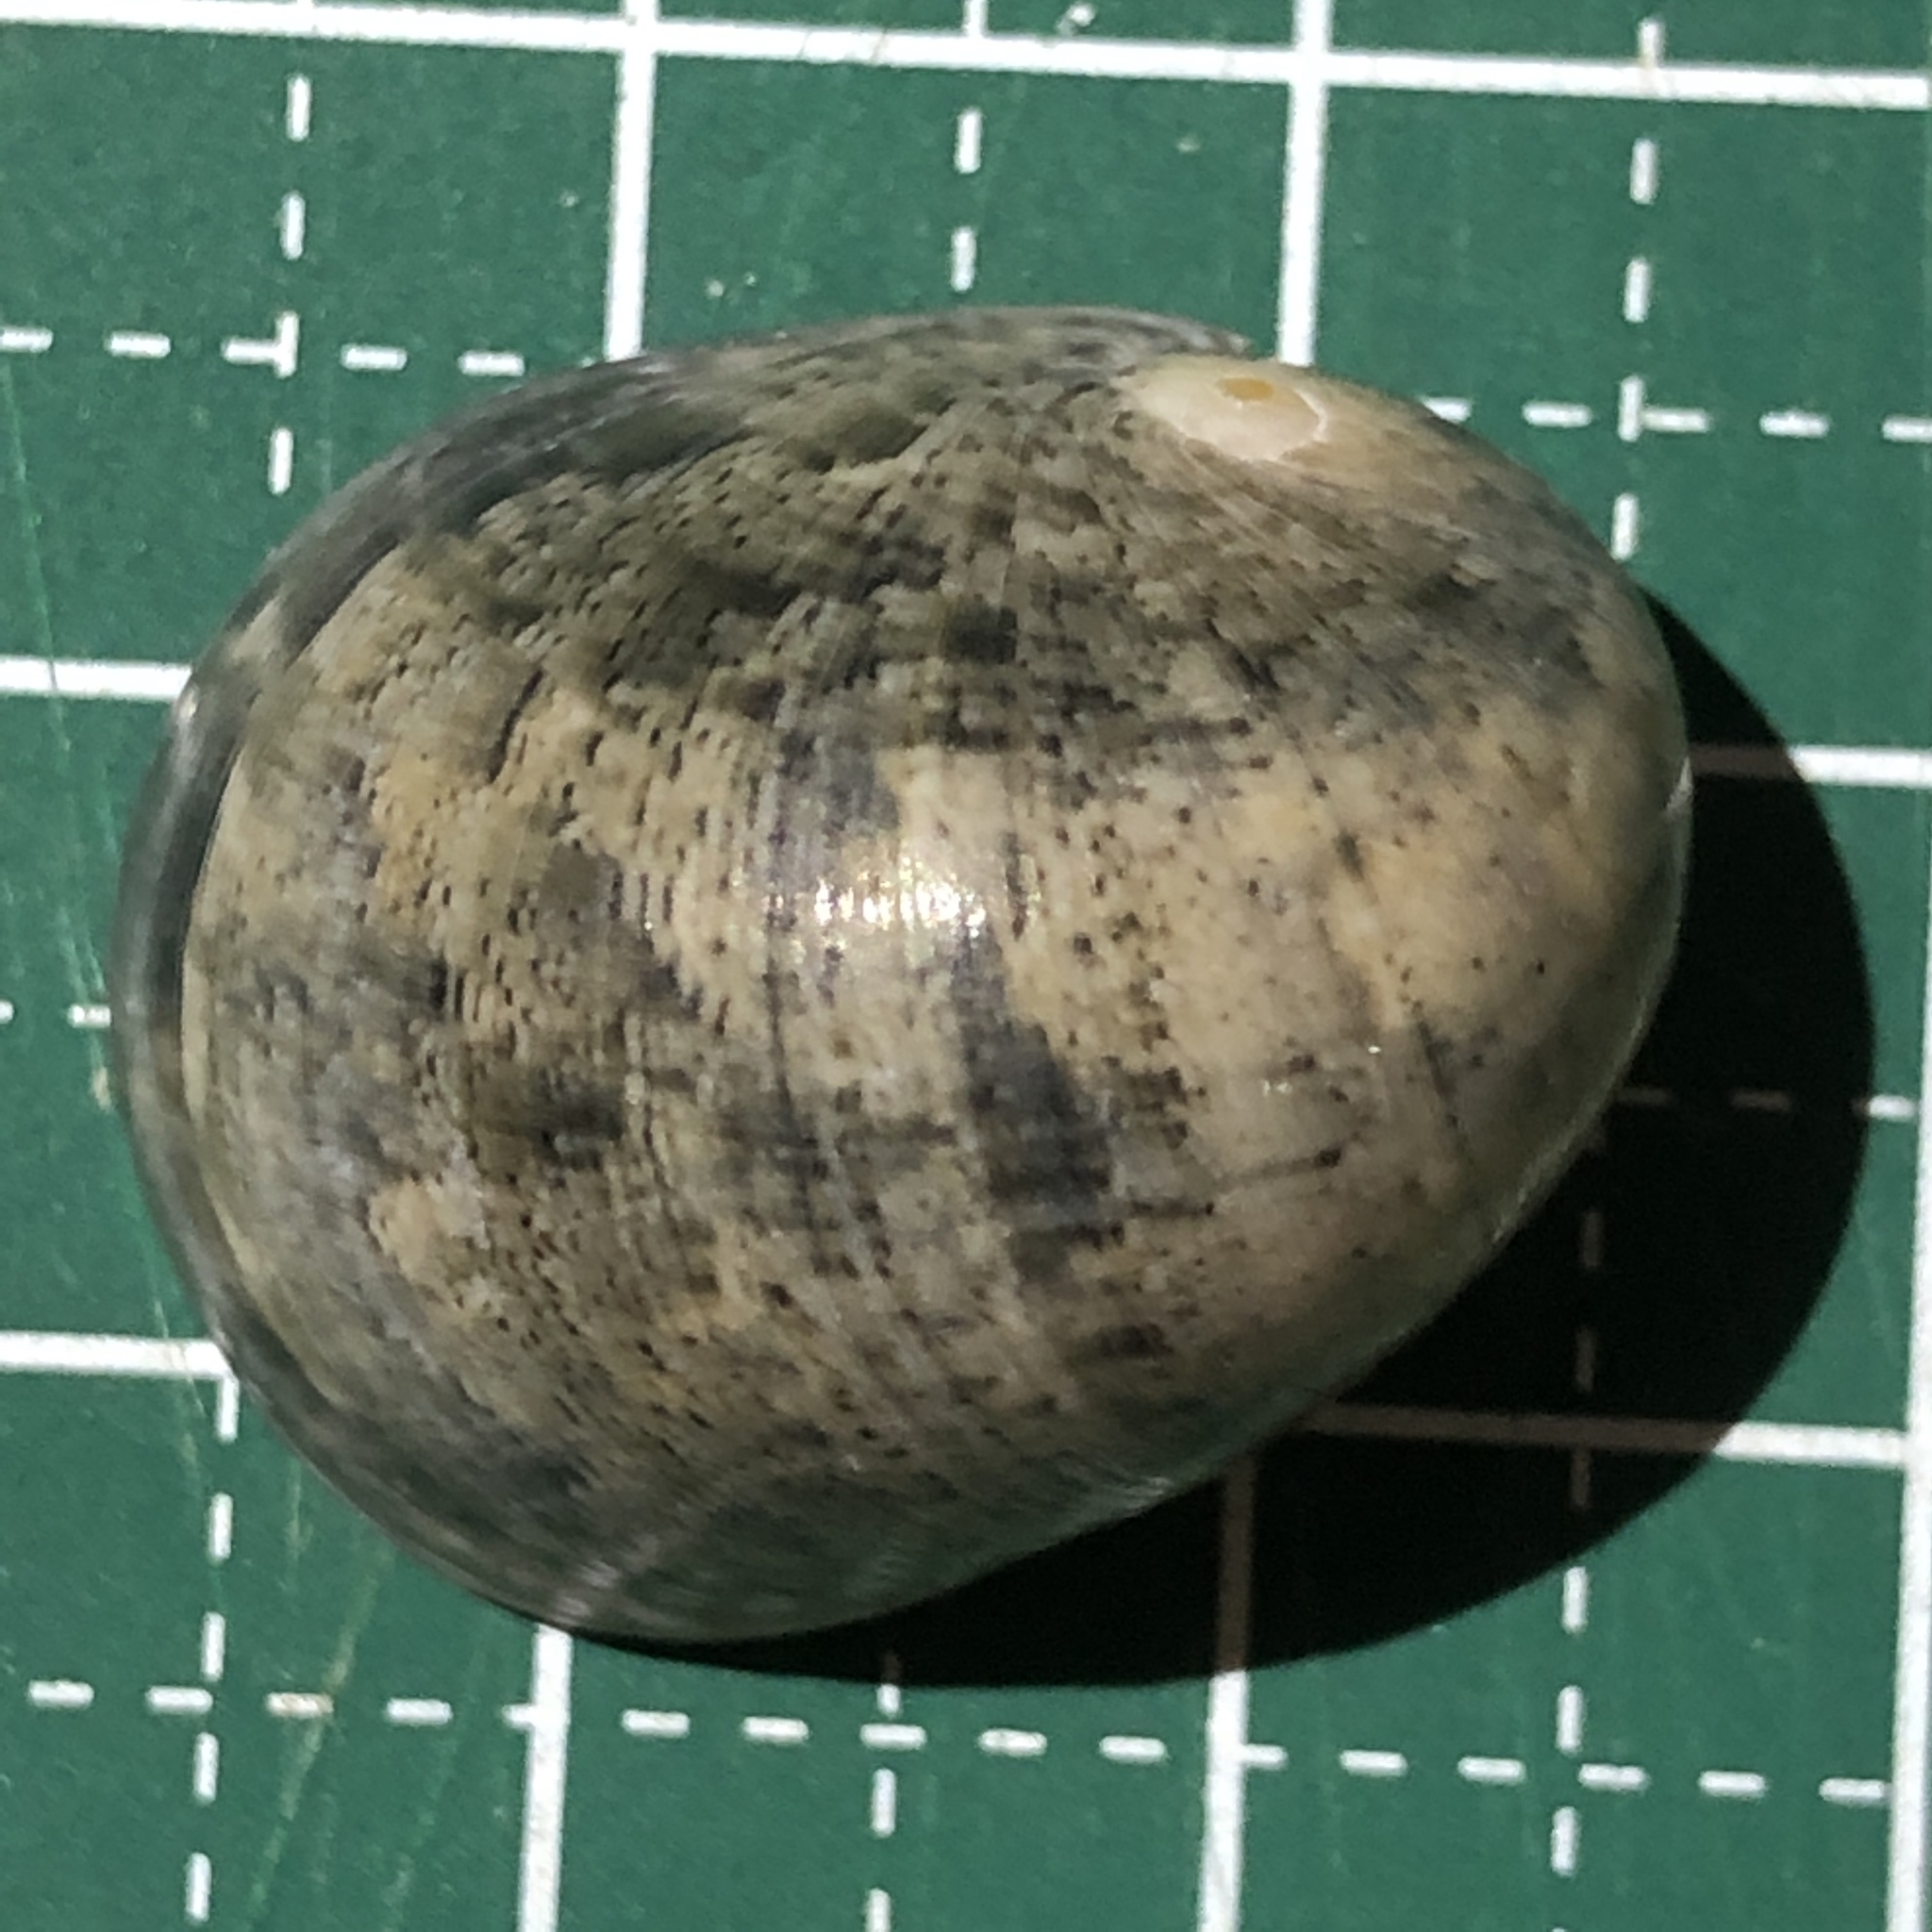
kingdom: Animalia
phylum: Mollusca
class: Gastropoda
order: Cycloneritida
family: Neritidae
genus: Nerita
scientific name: Nerita polita
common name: Polished nerite
